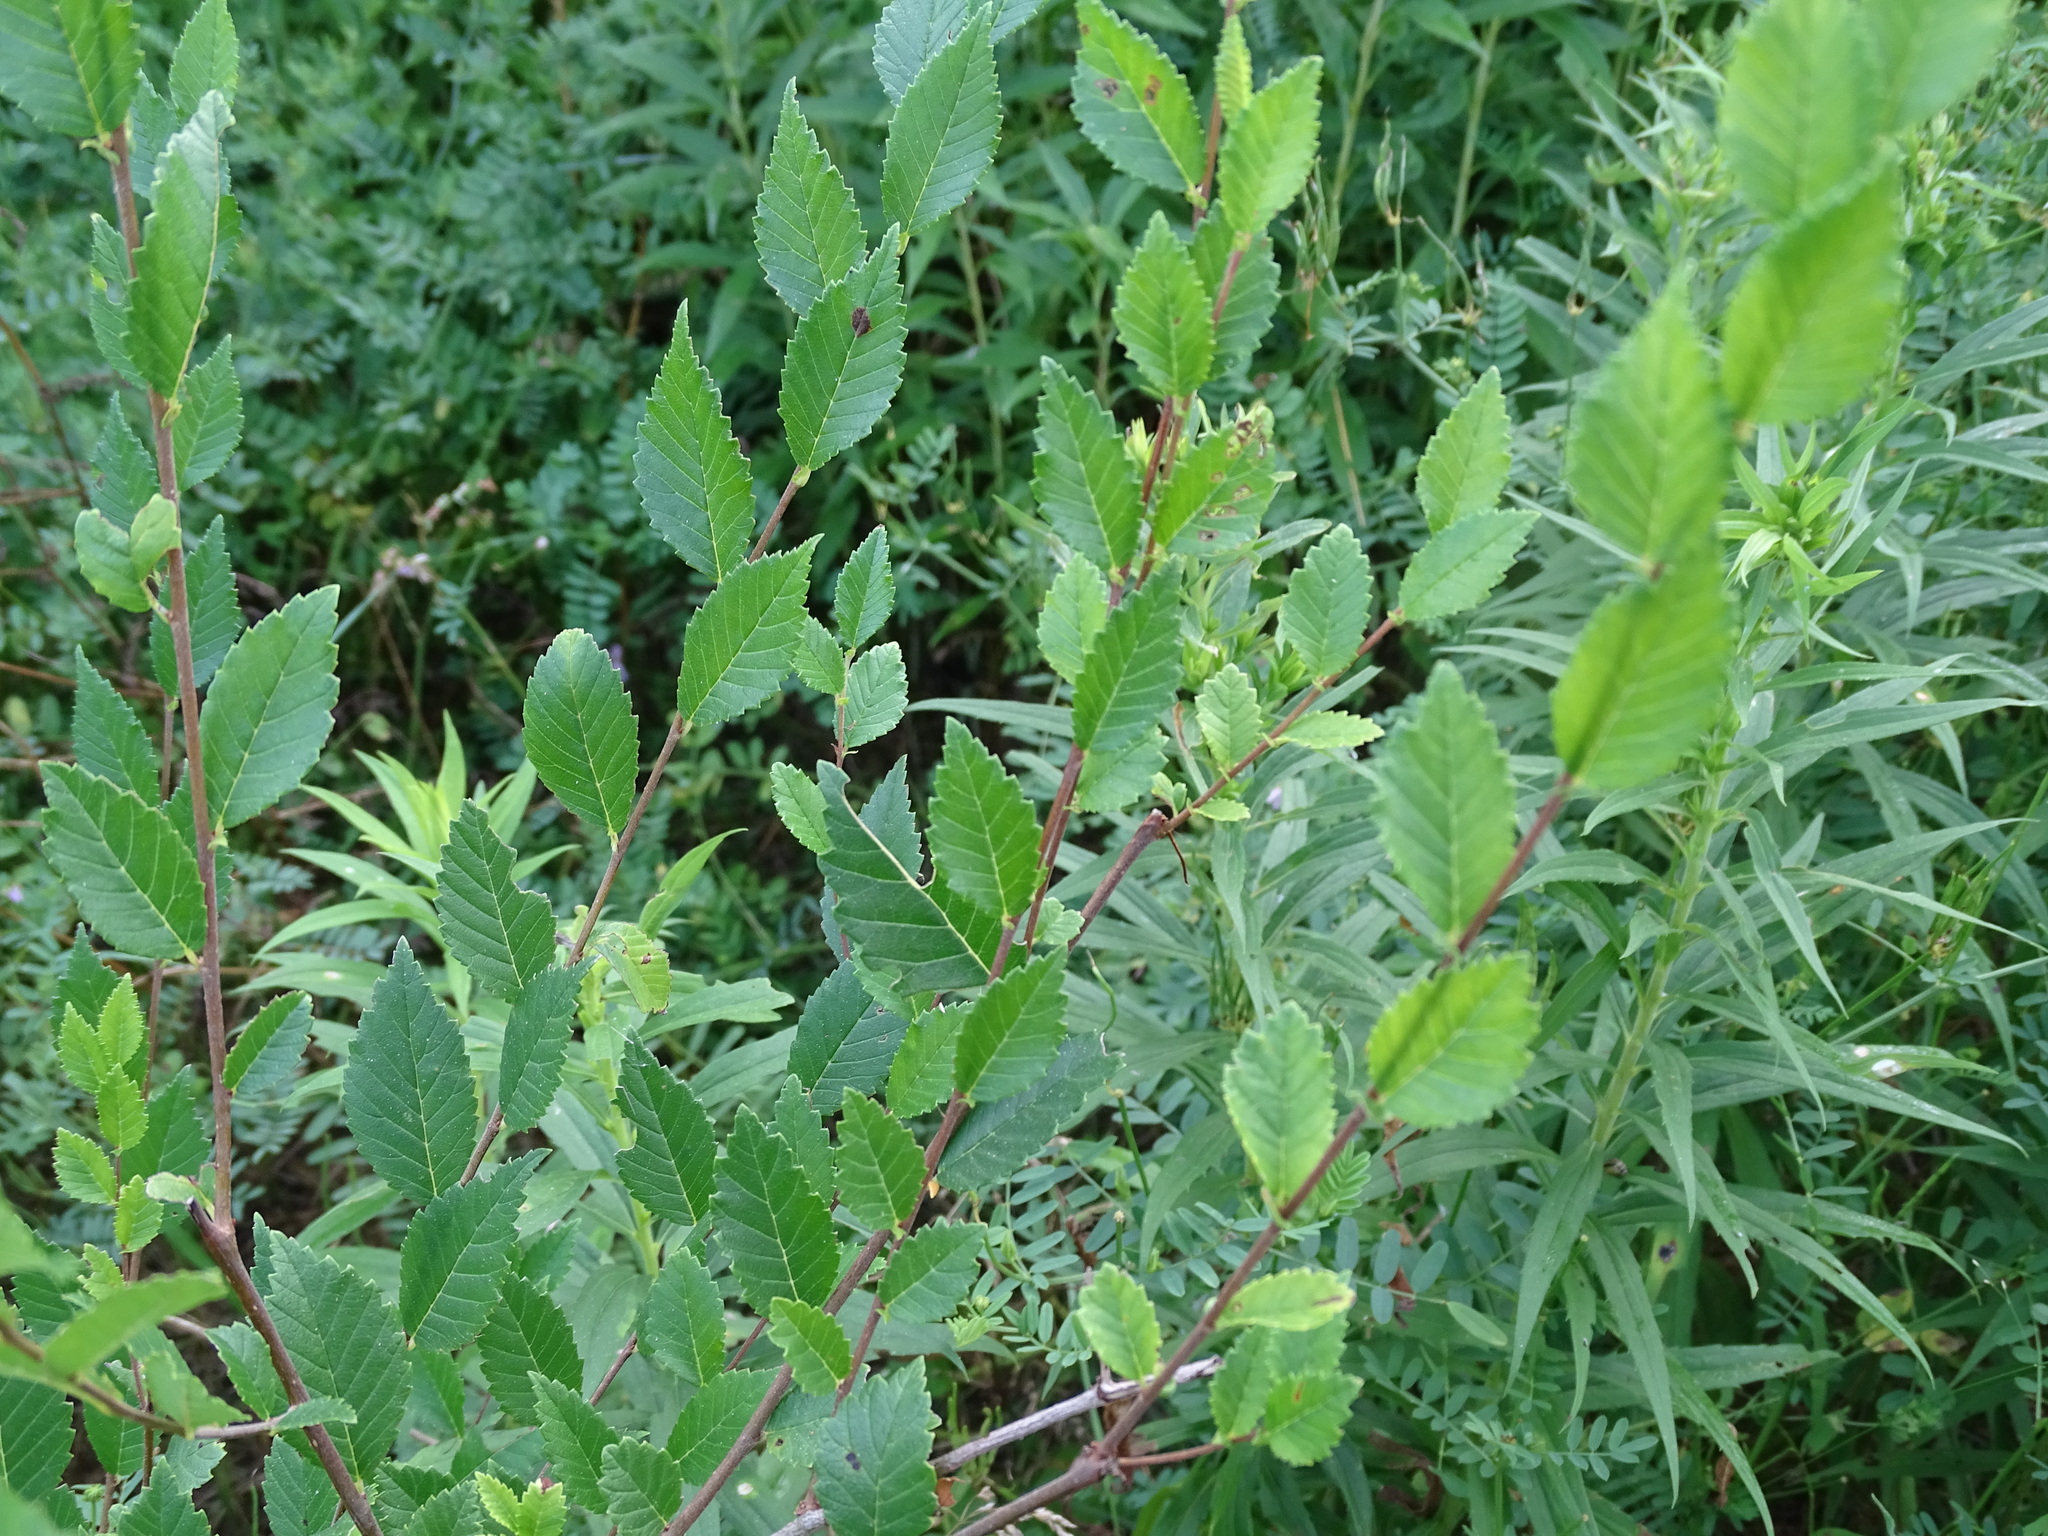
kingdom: Plantae
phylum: Tracheophyta
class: Magnoliopsida
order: Rosales
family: Ulmaceae
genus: Ulmus
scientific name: Ulmus pumila
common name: Siberian elm
